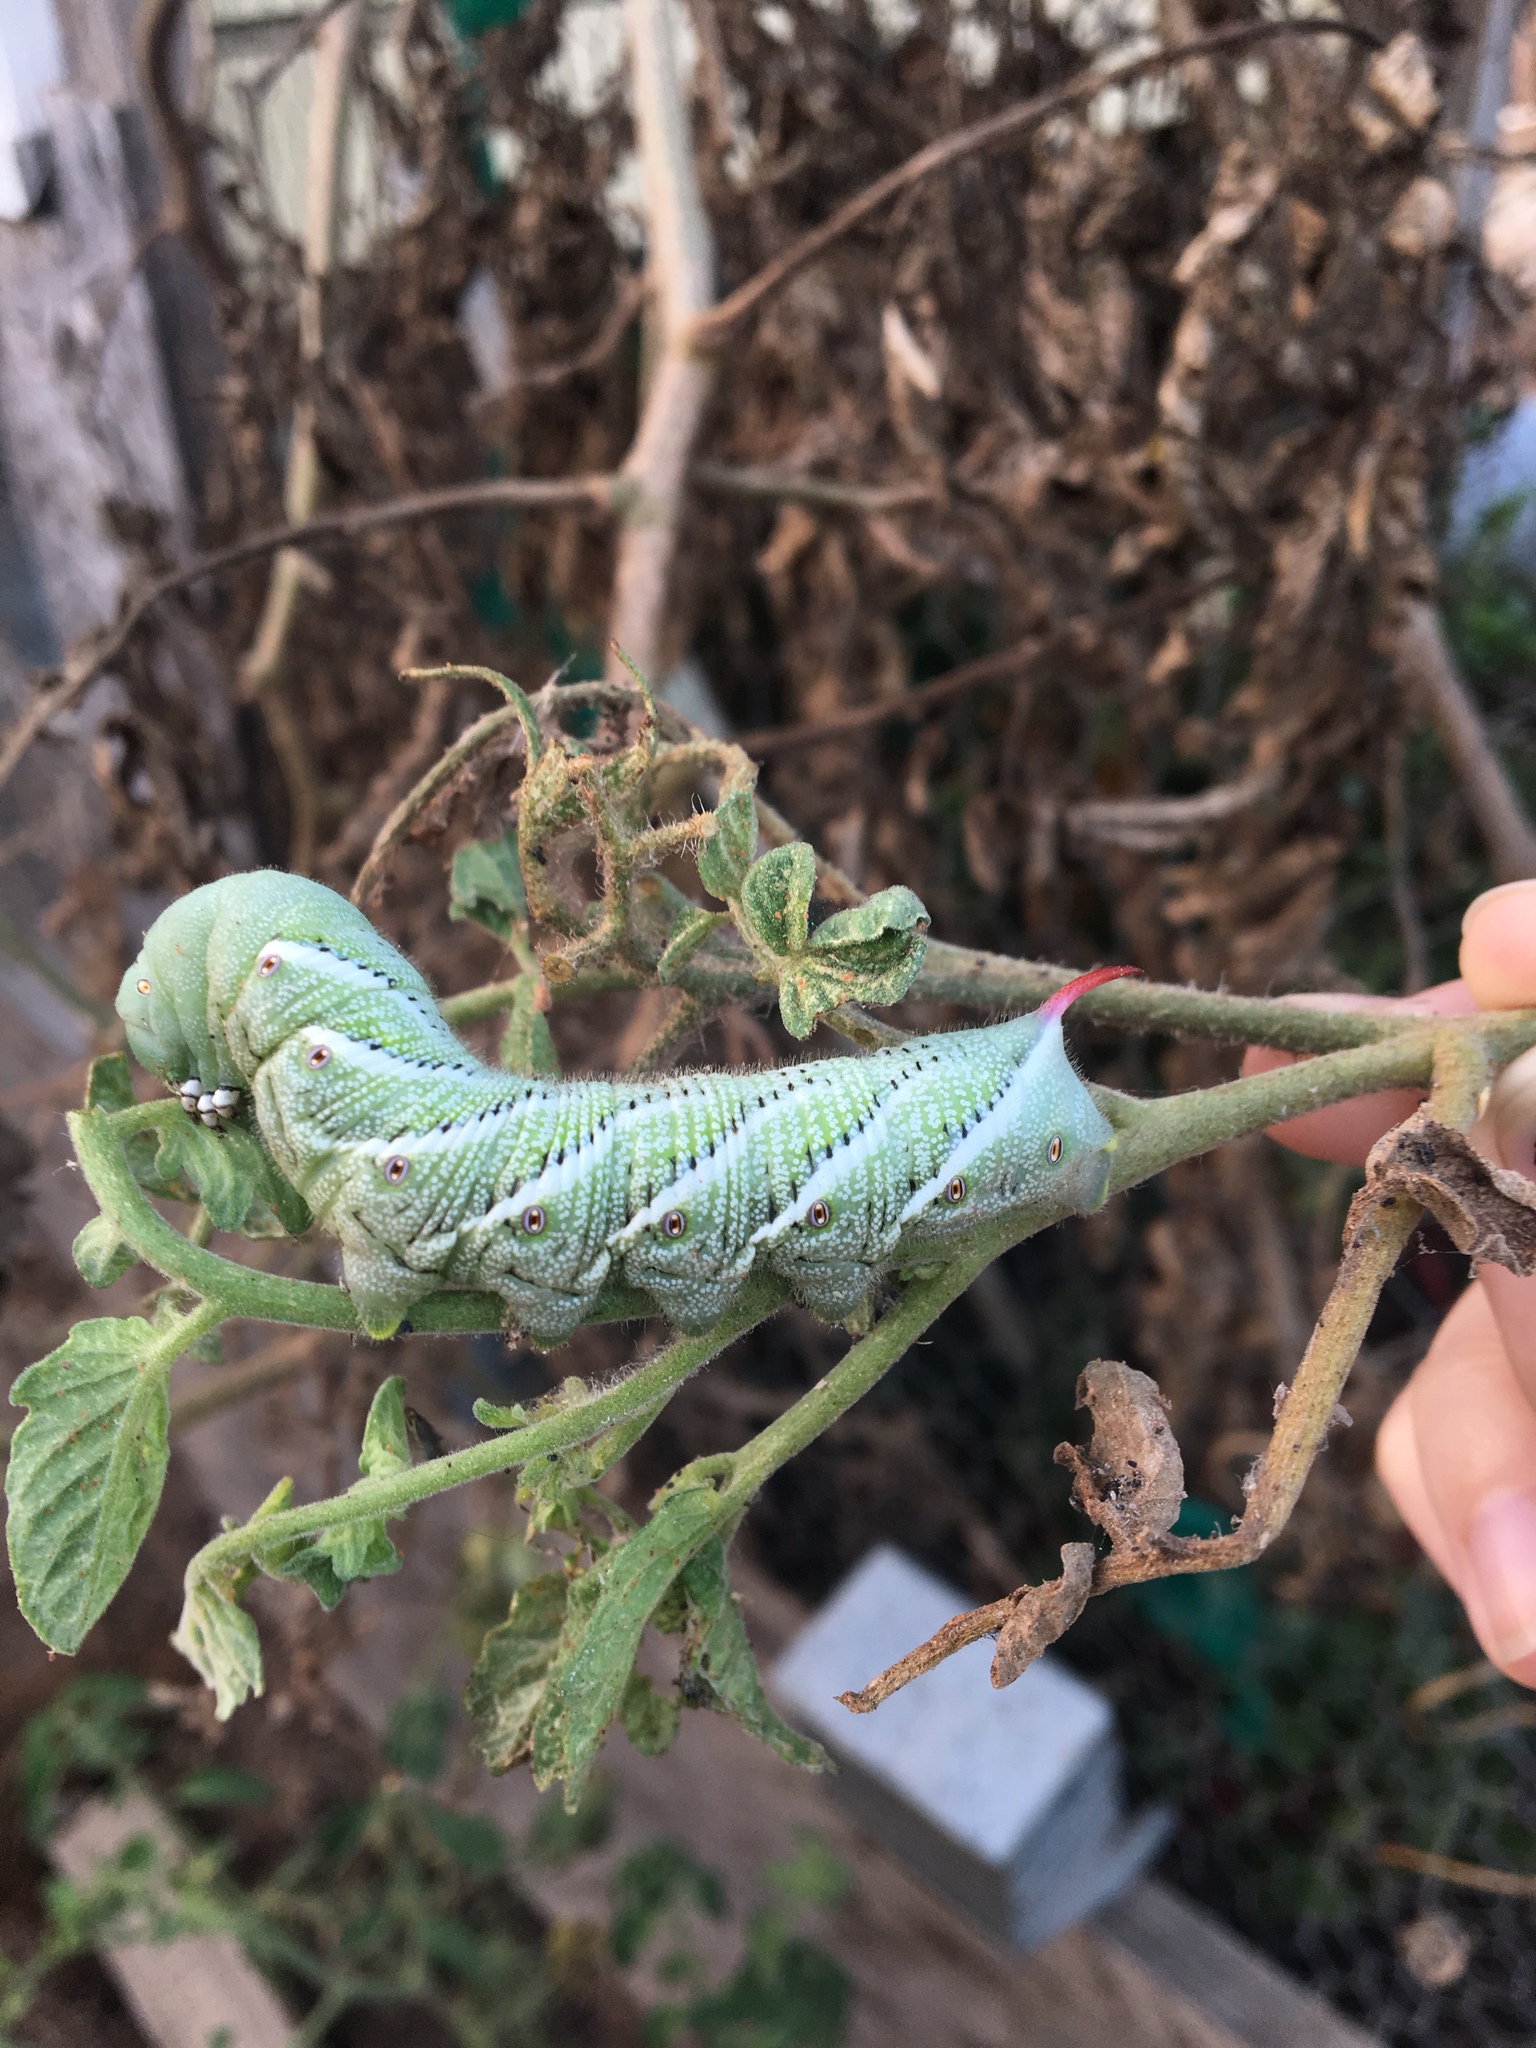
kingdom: Animalia
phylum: Arthropoda
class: Insecta
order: Lepidoptera
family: Sphingidae
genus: Manduca
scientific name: Manduca sexta
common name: Carolina sphinx
